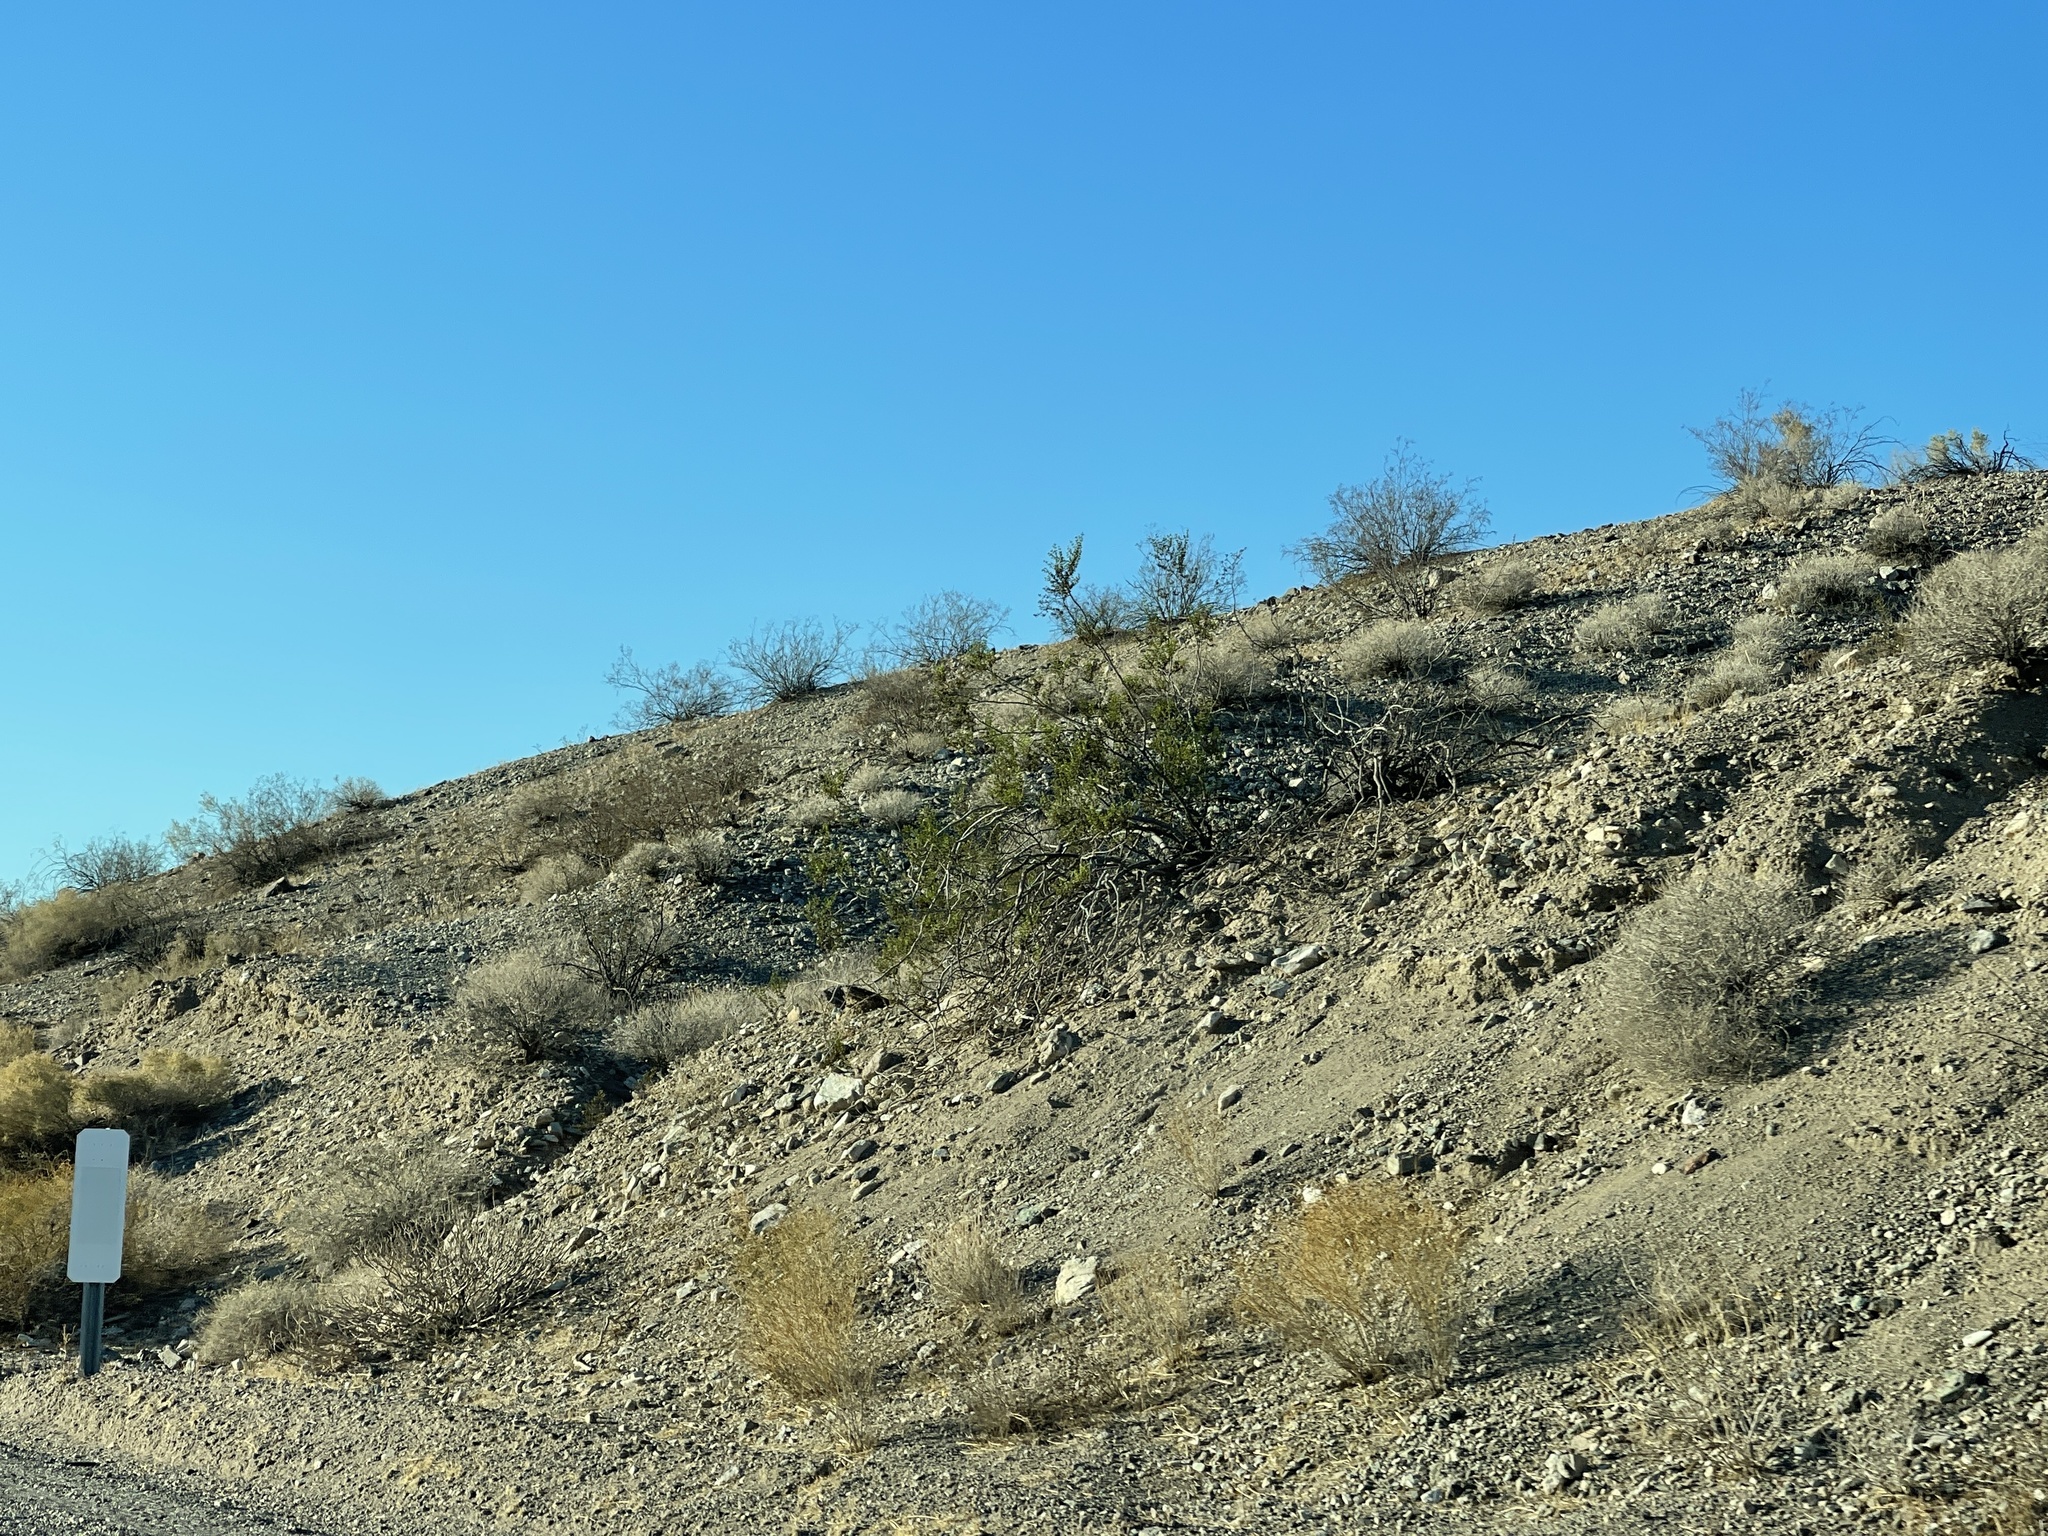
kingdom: Plantae
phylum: Tracheophyta
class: Magnoliopsida
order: Zygophyllales
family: Zygophyllaceae
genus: Larrea
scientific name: Larrea tridentata
